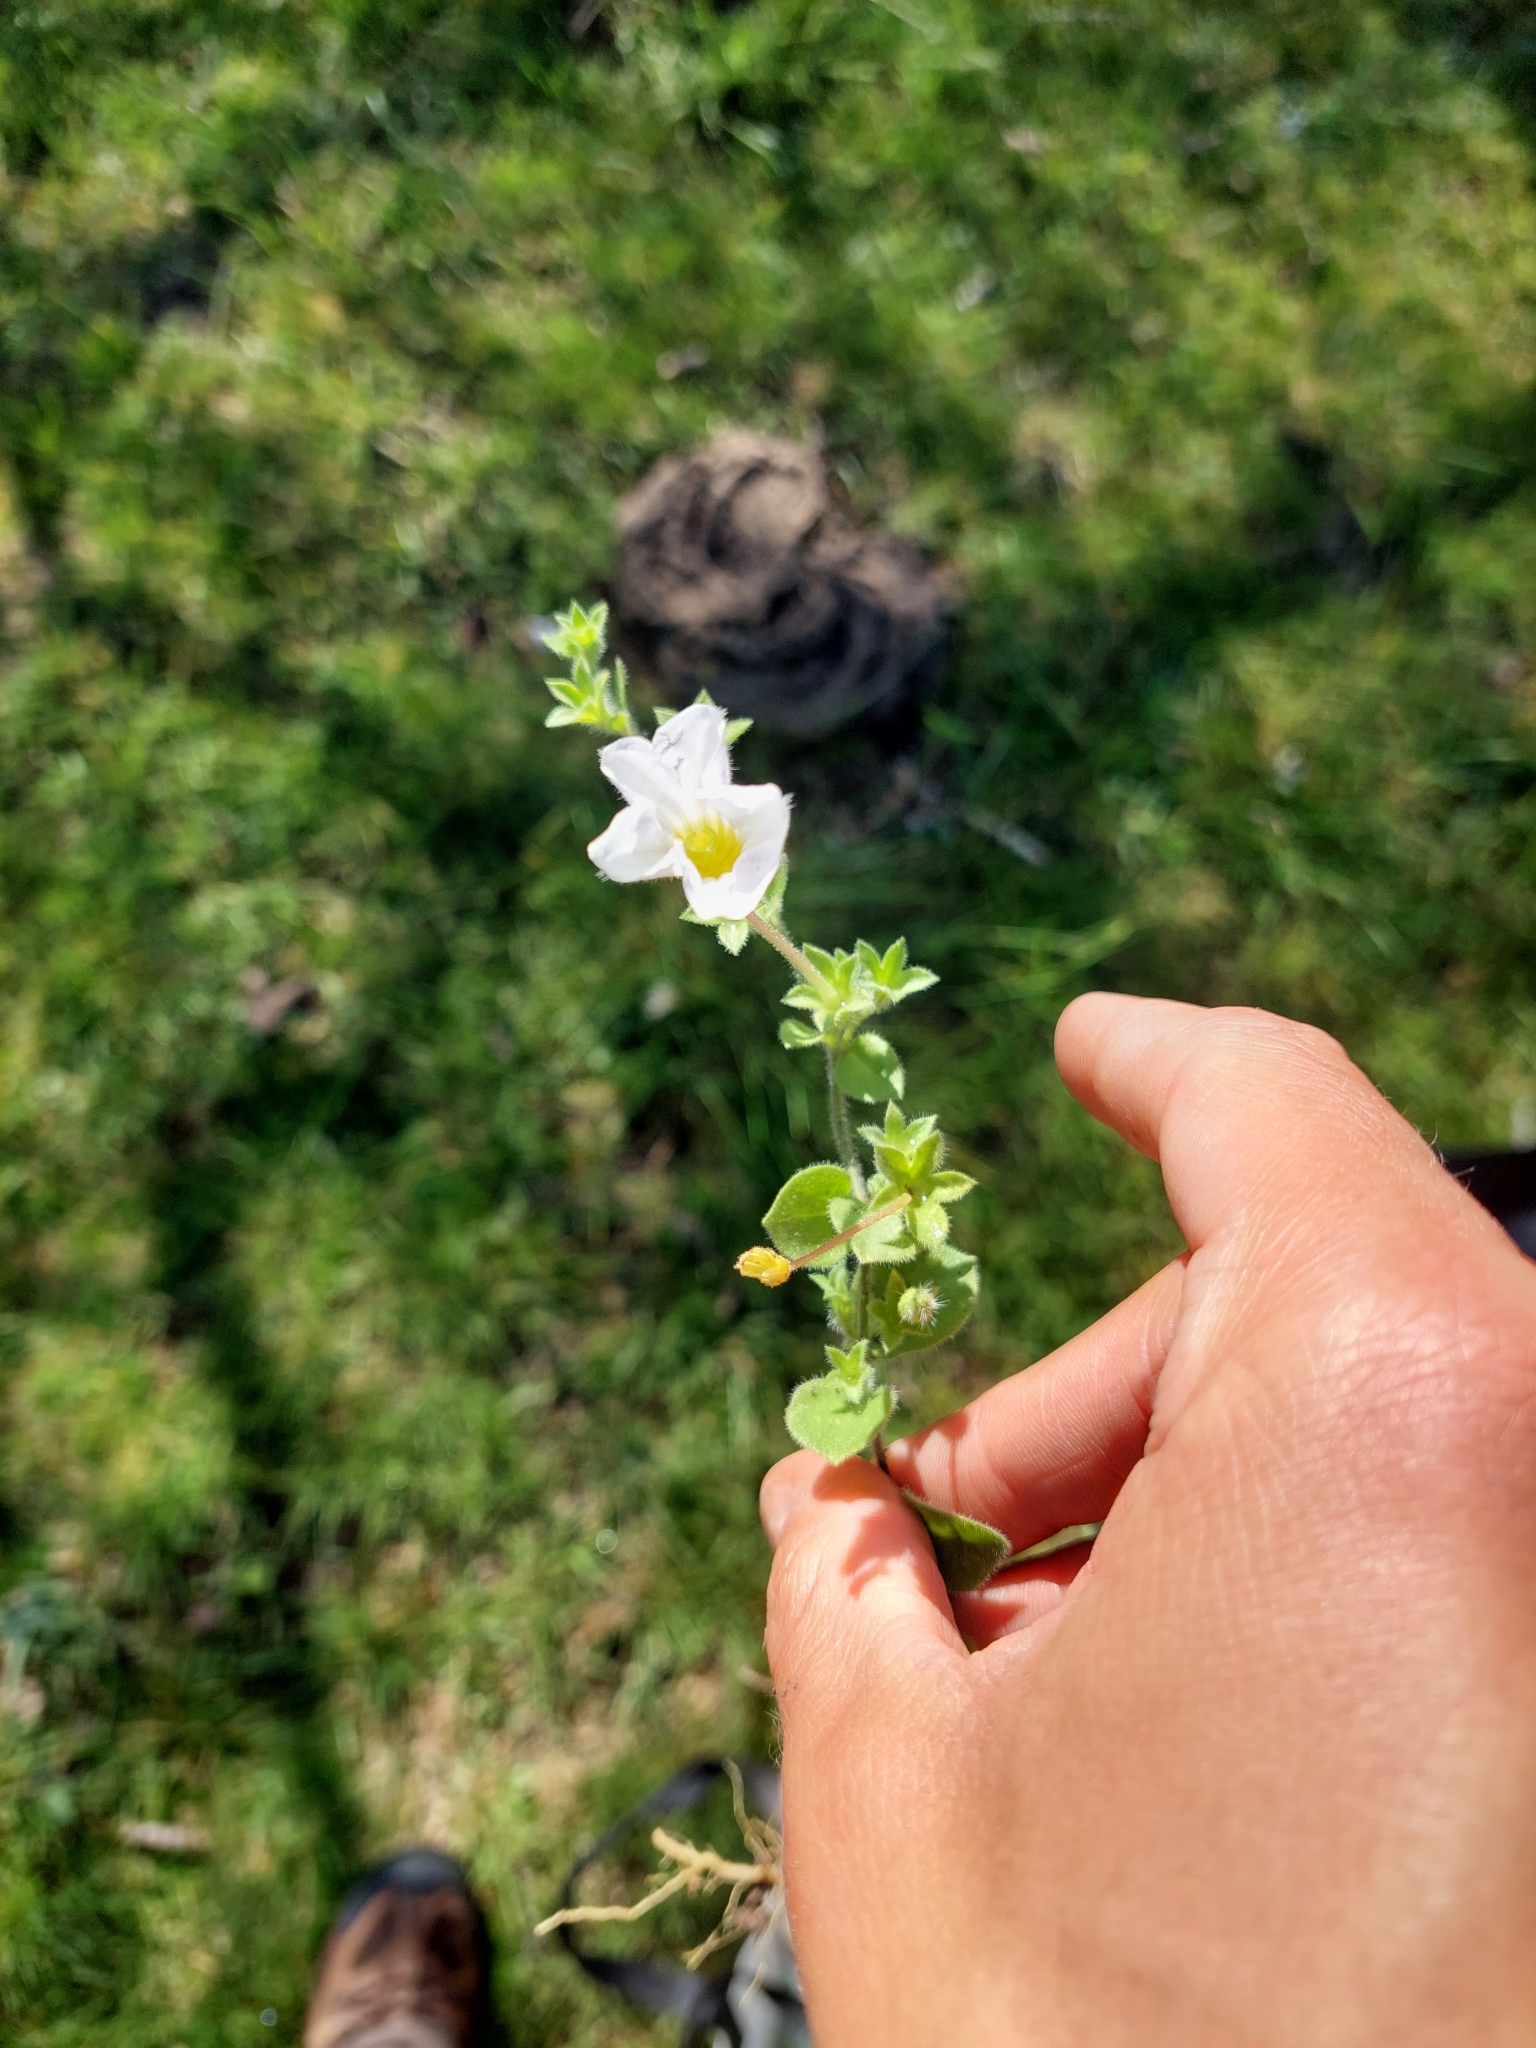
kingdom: Plantae
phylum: Tracheophyta
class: Magnoliopsida
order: Solanales
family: Solanaceae
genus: Nierembergia
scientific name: Nierembergia calycina
